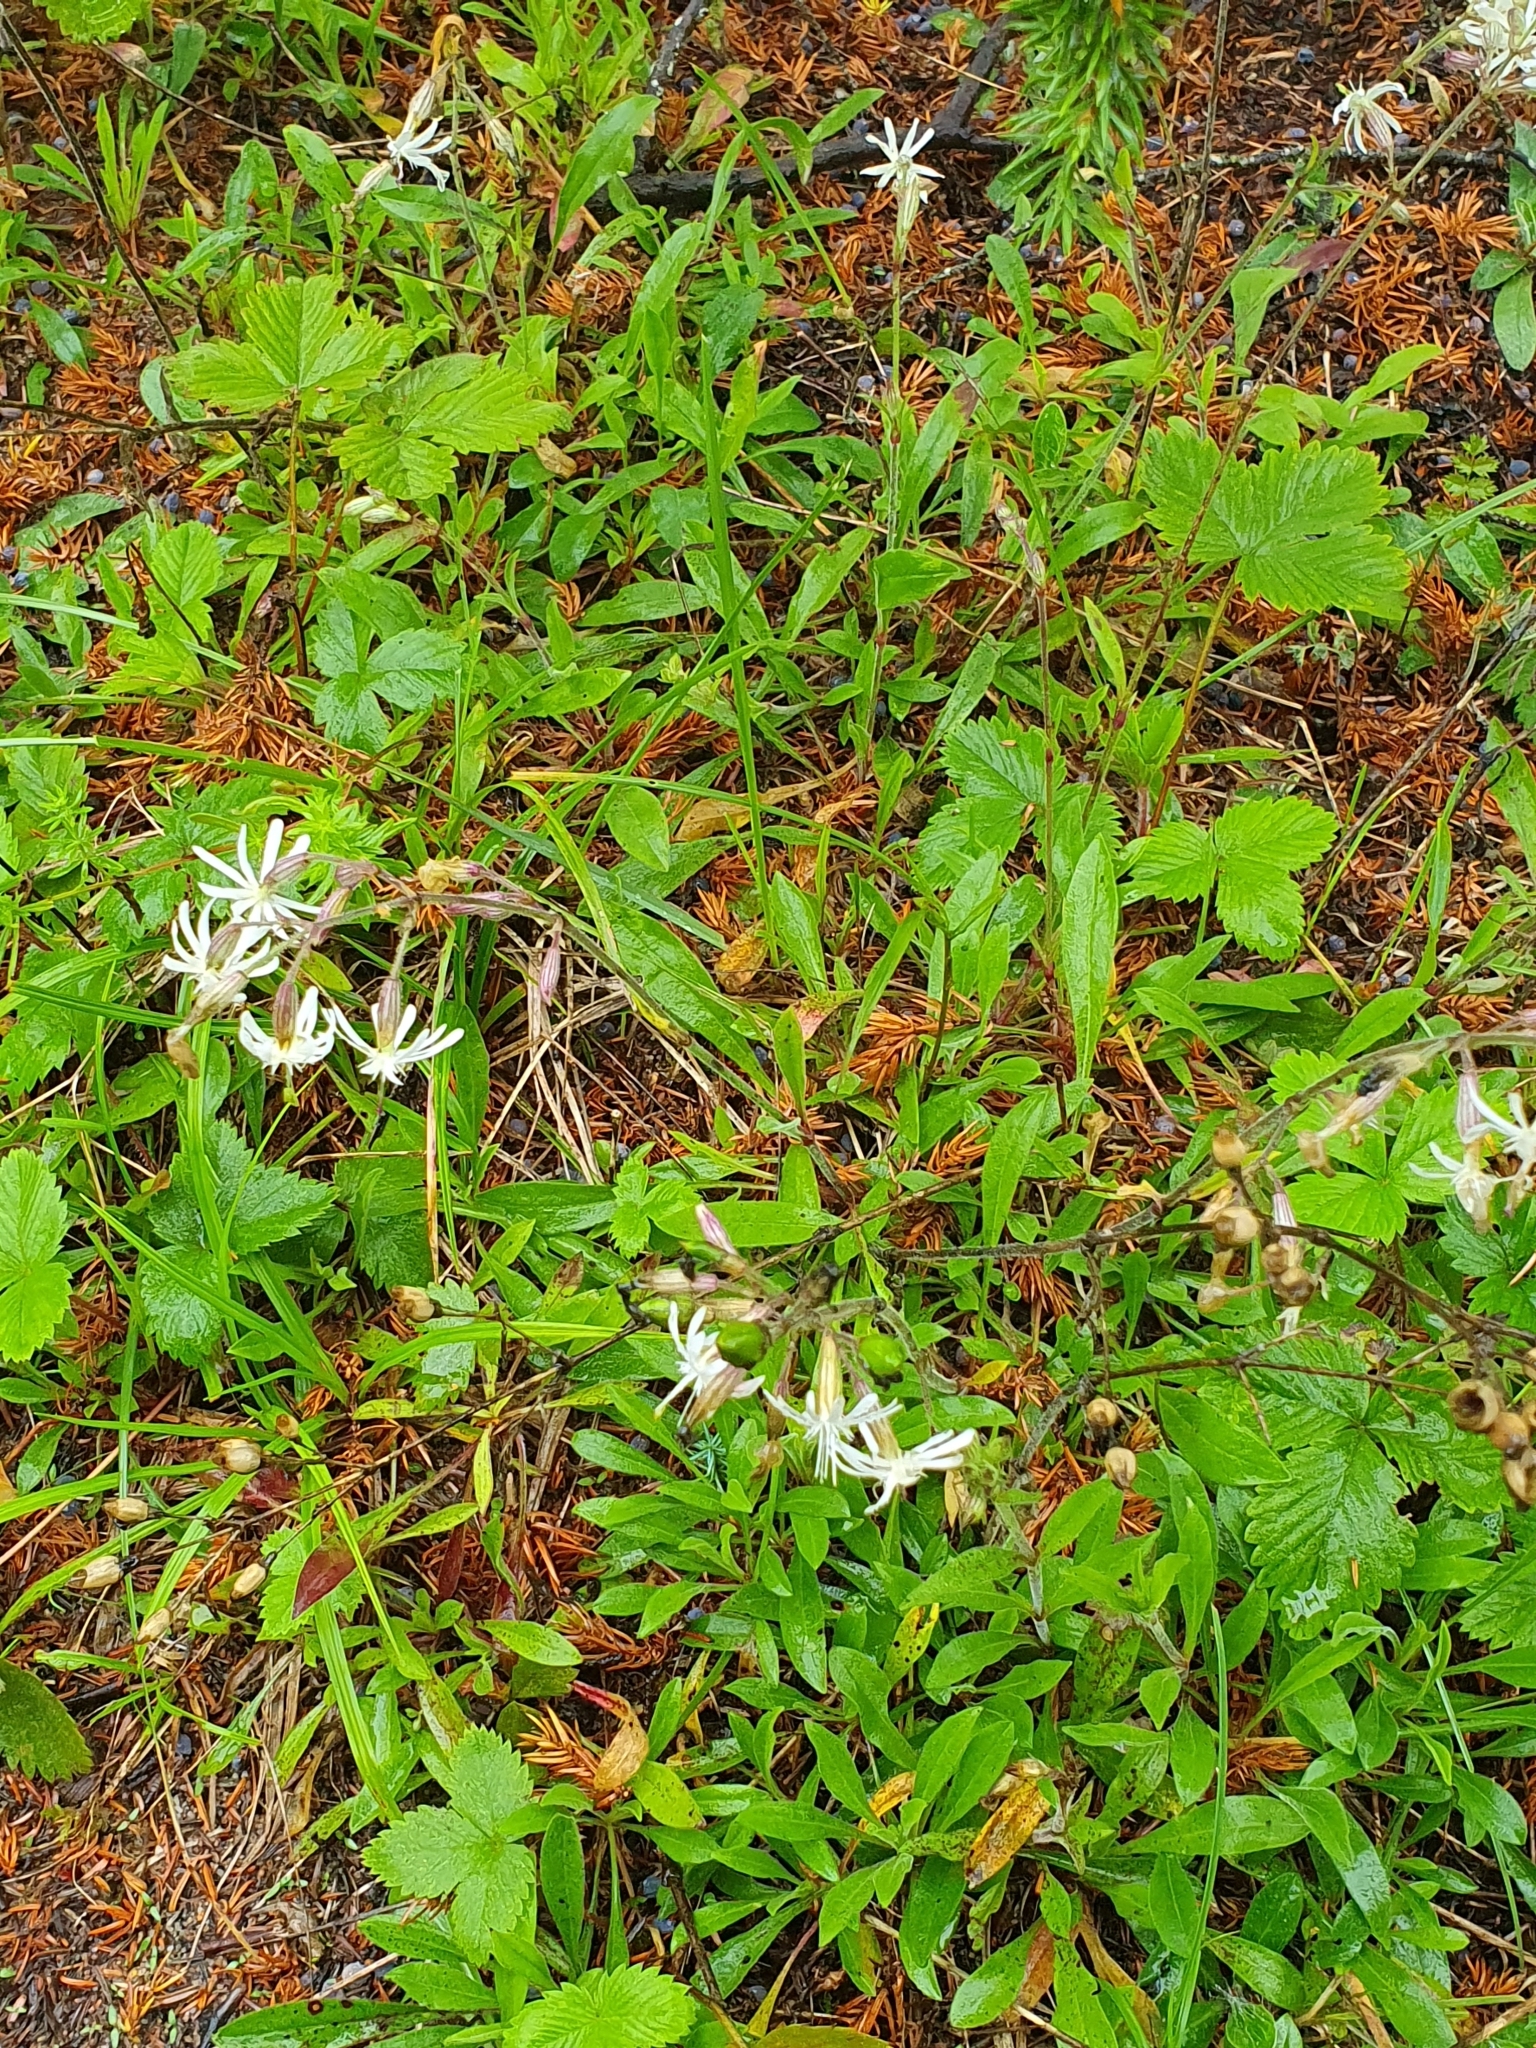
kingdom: Plantae
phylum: Tracheophyta
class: Magnoliopsida
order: Caryophyllales
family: Caryophyllaceae
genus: Silene
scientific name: Silene nutans
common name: Nottingham catchfly
